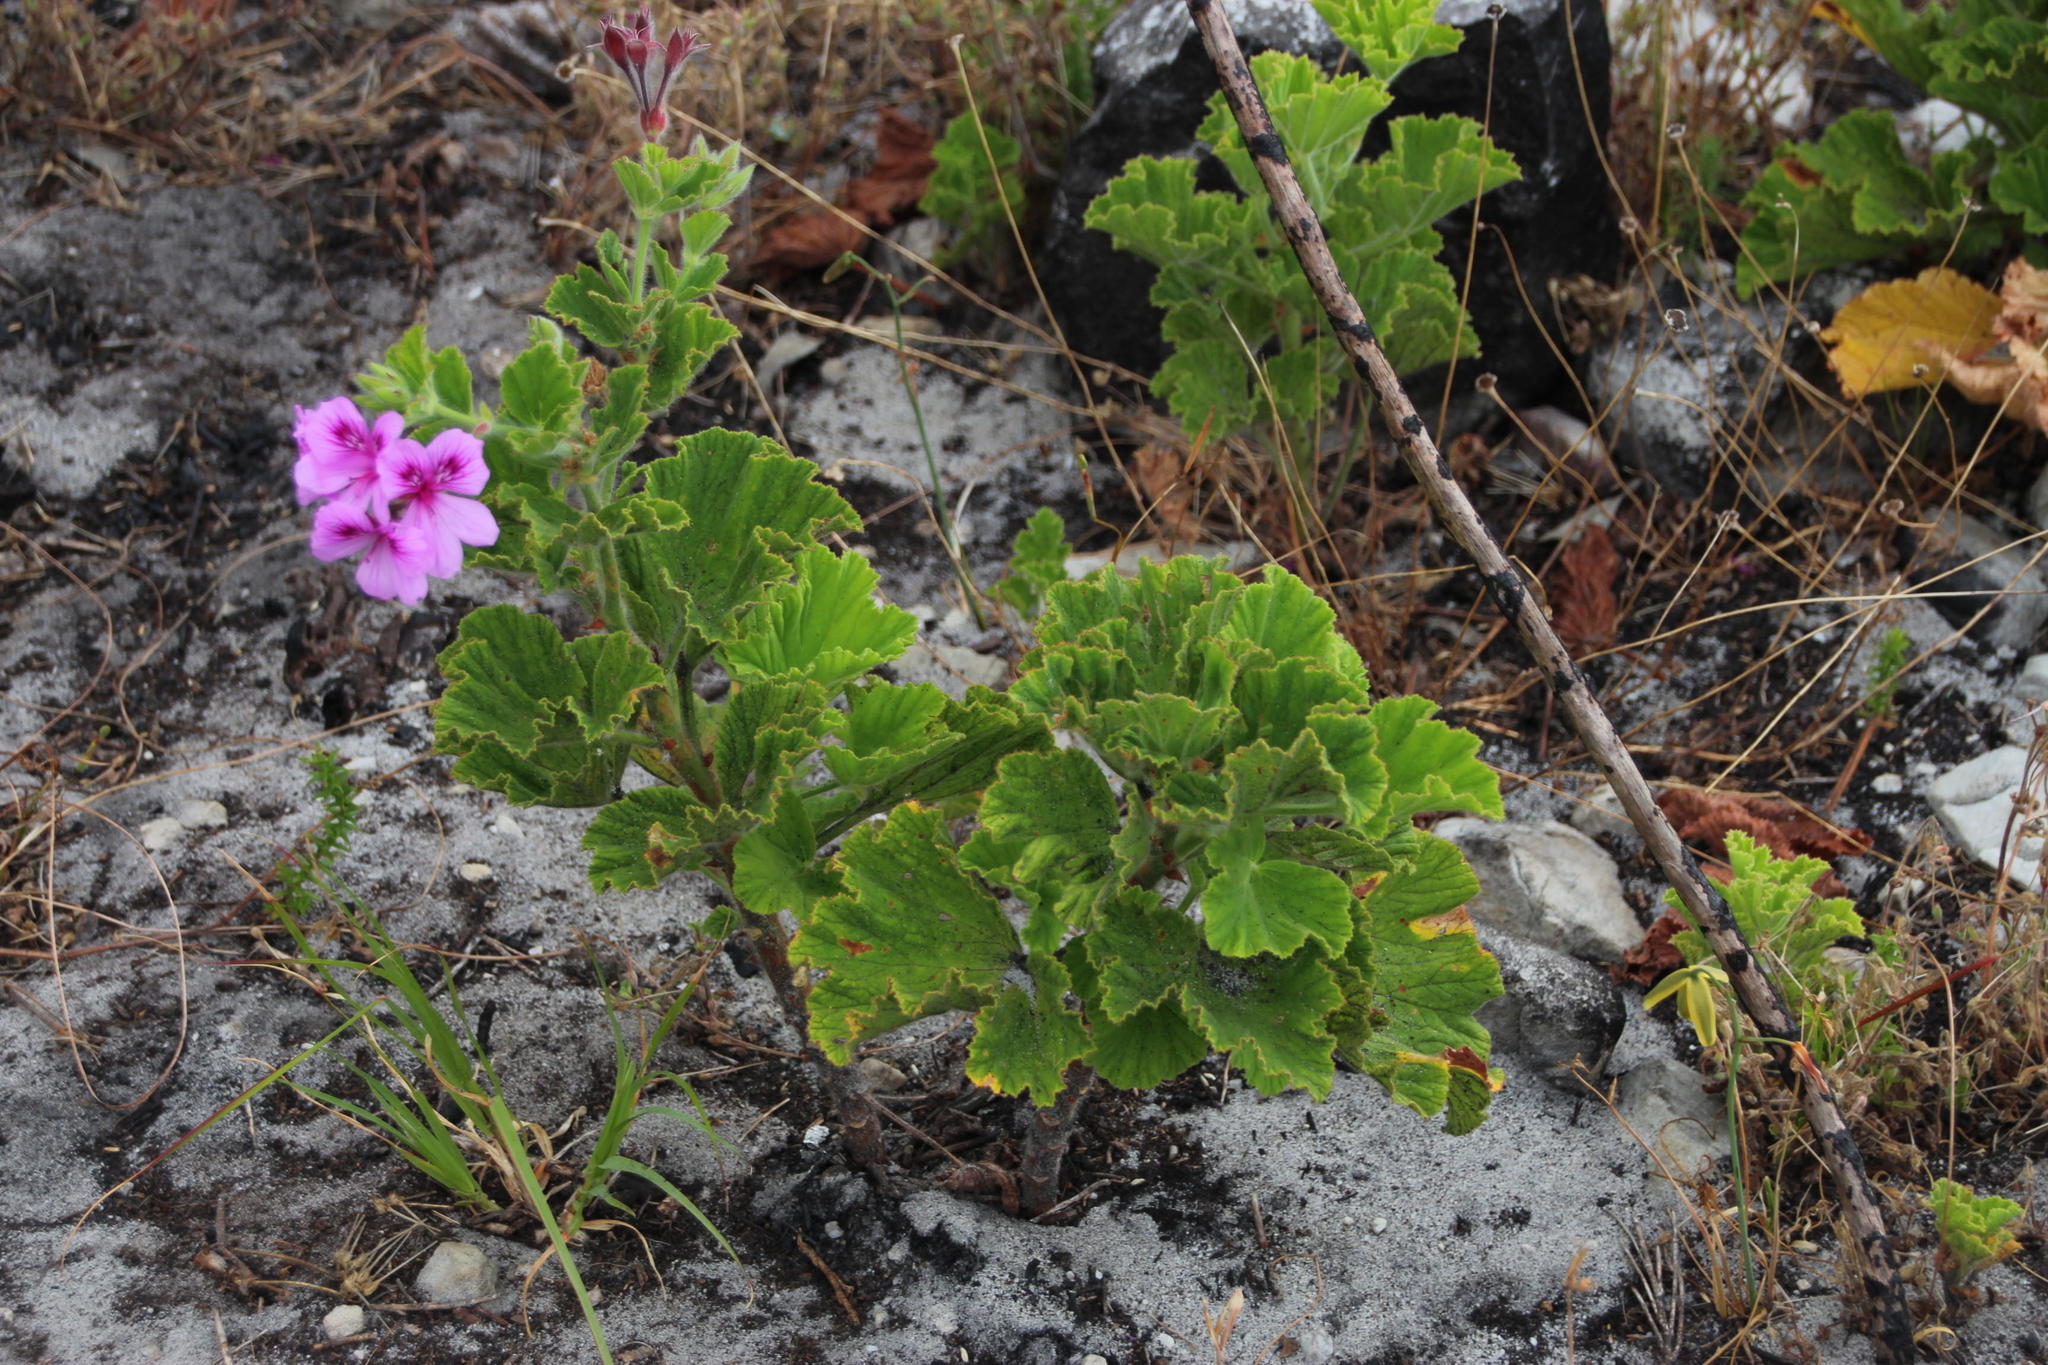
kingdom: Plantae
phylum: Tracheophyta
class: Magnoliopsida
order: Geraniales
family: Geraniaceae
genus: Pelargonium
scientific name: Pelargonium cucullatum
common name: Tree pelargonium
